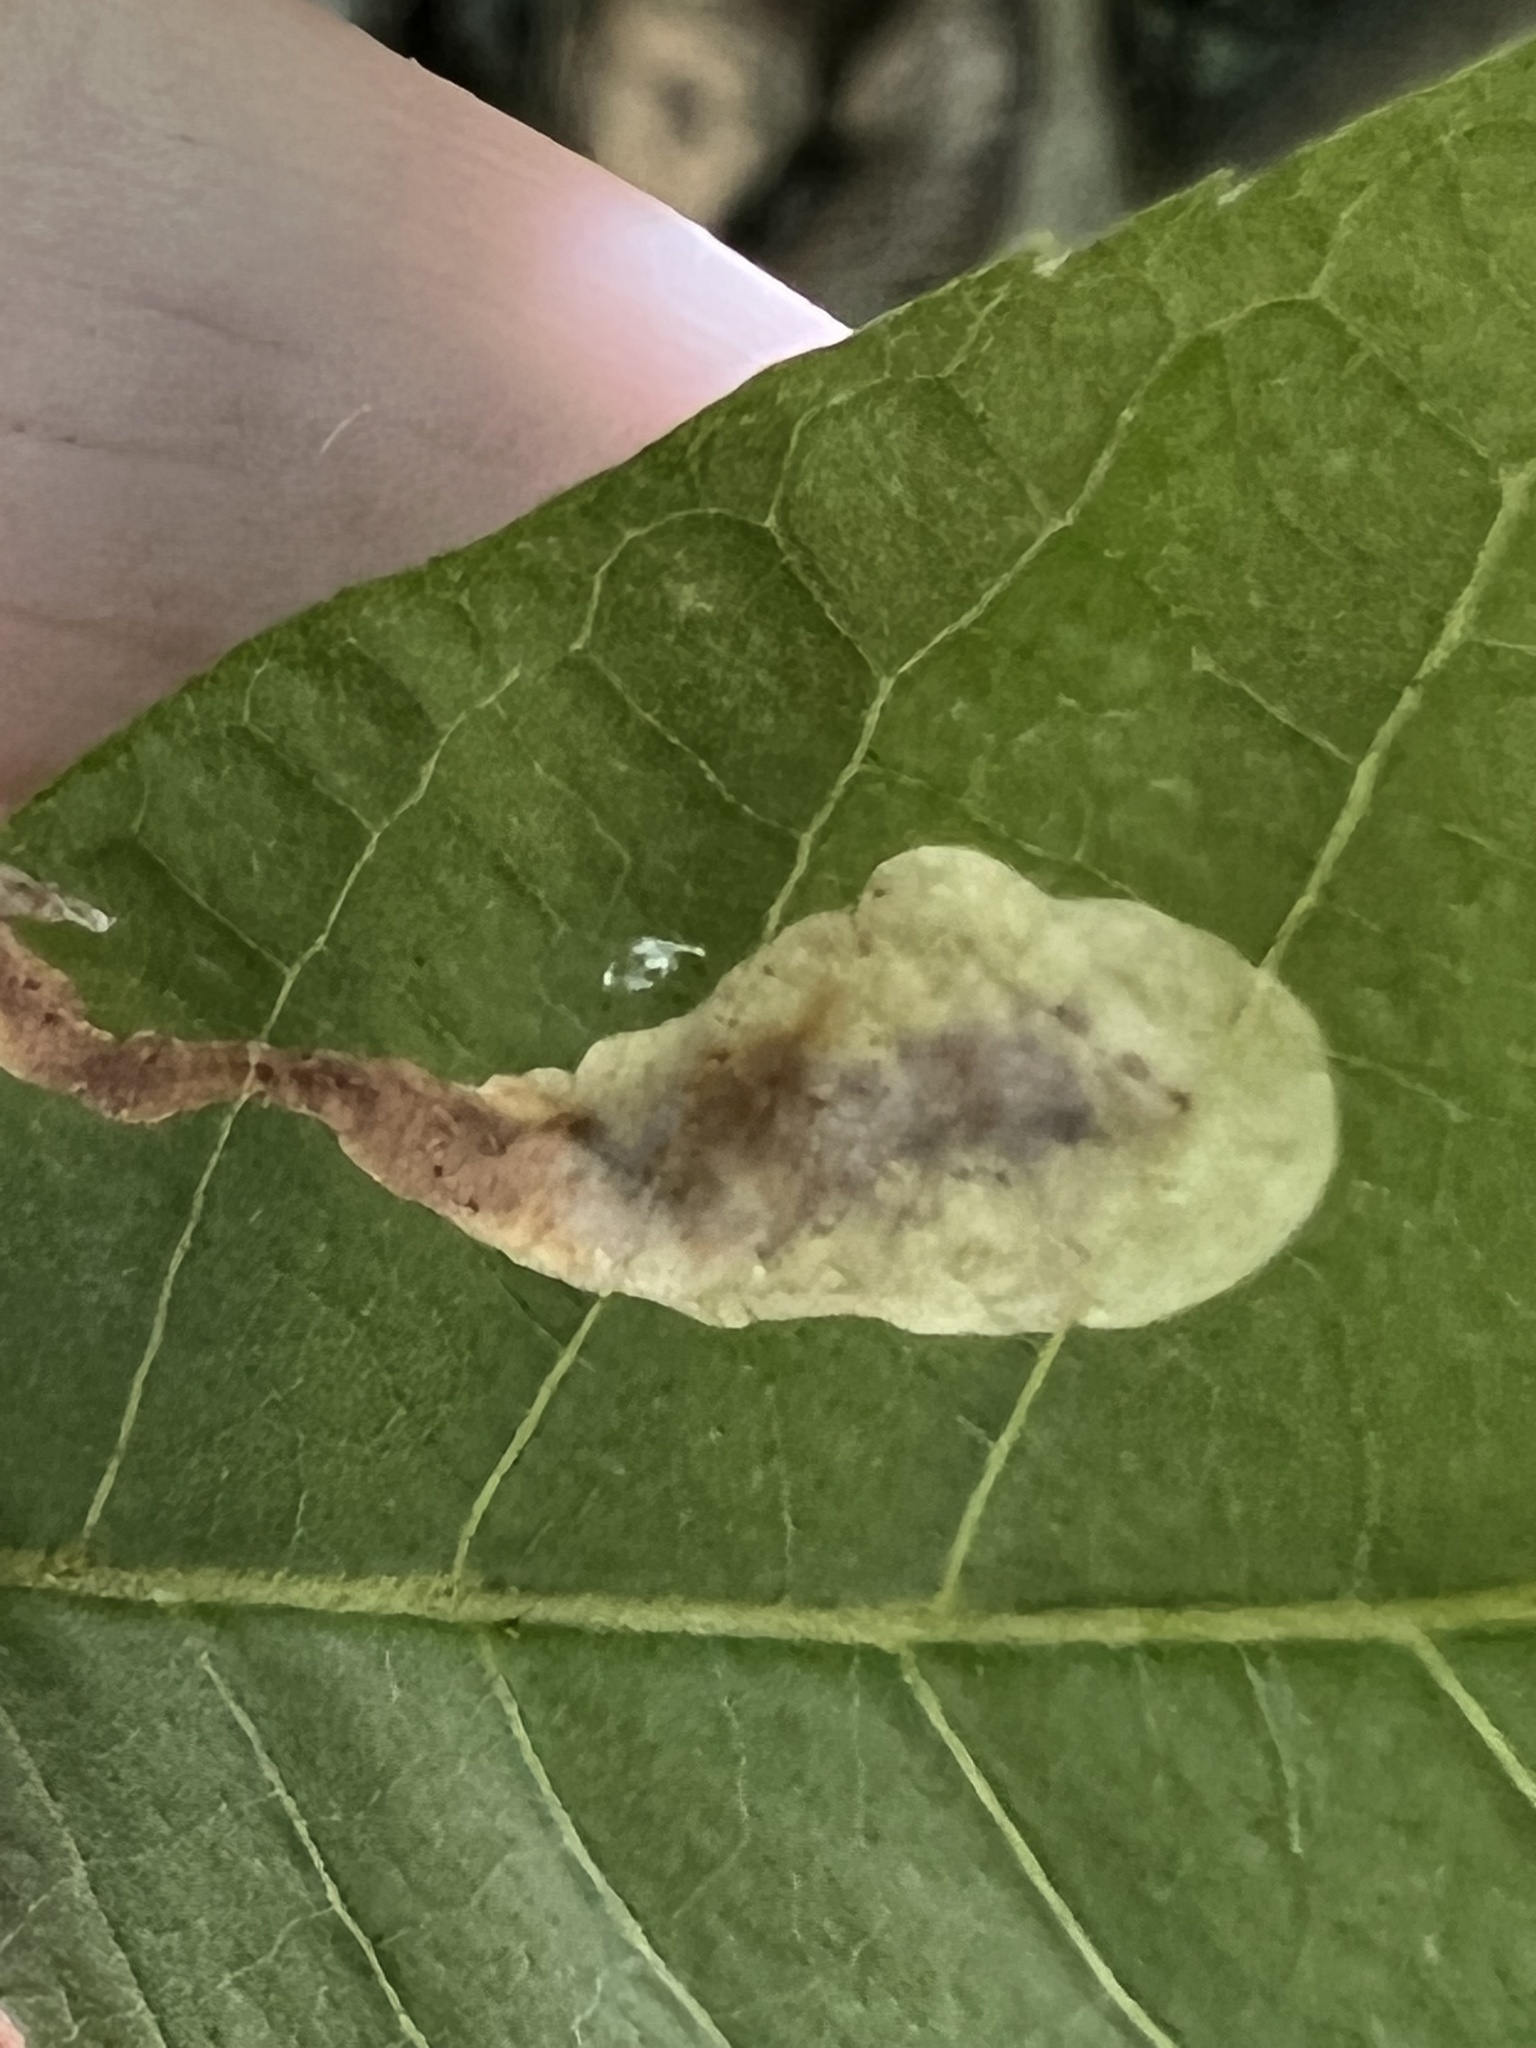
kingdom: Animalia
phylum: Arthropoda
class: Insecta
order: Lepidoptera
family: Gracillariidae
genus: Cameraria
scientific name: Cameraria caryaefoliella
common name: Pecan leafminer moth
